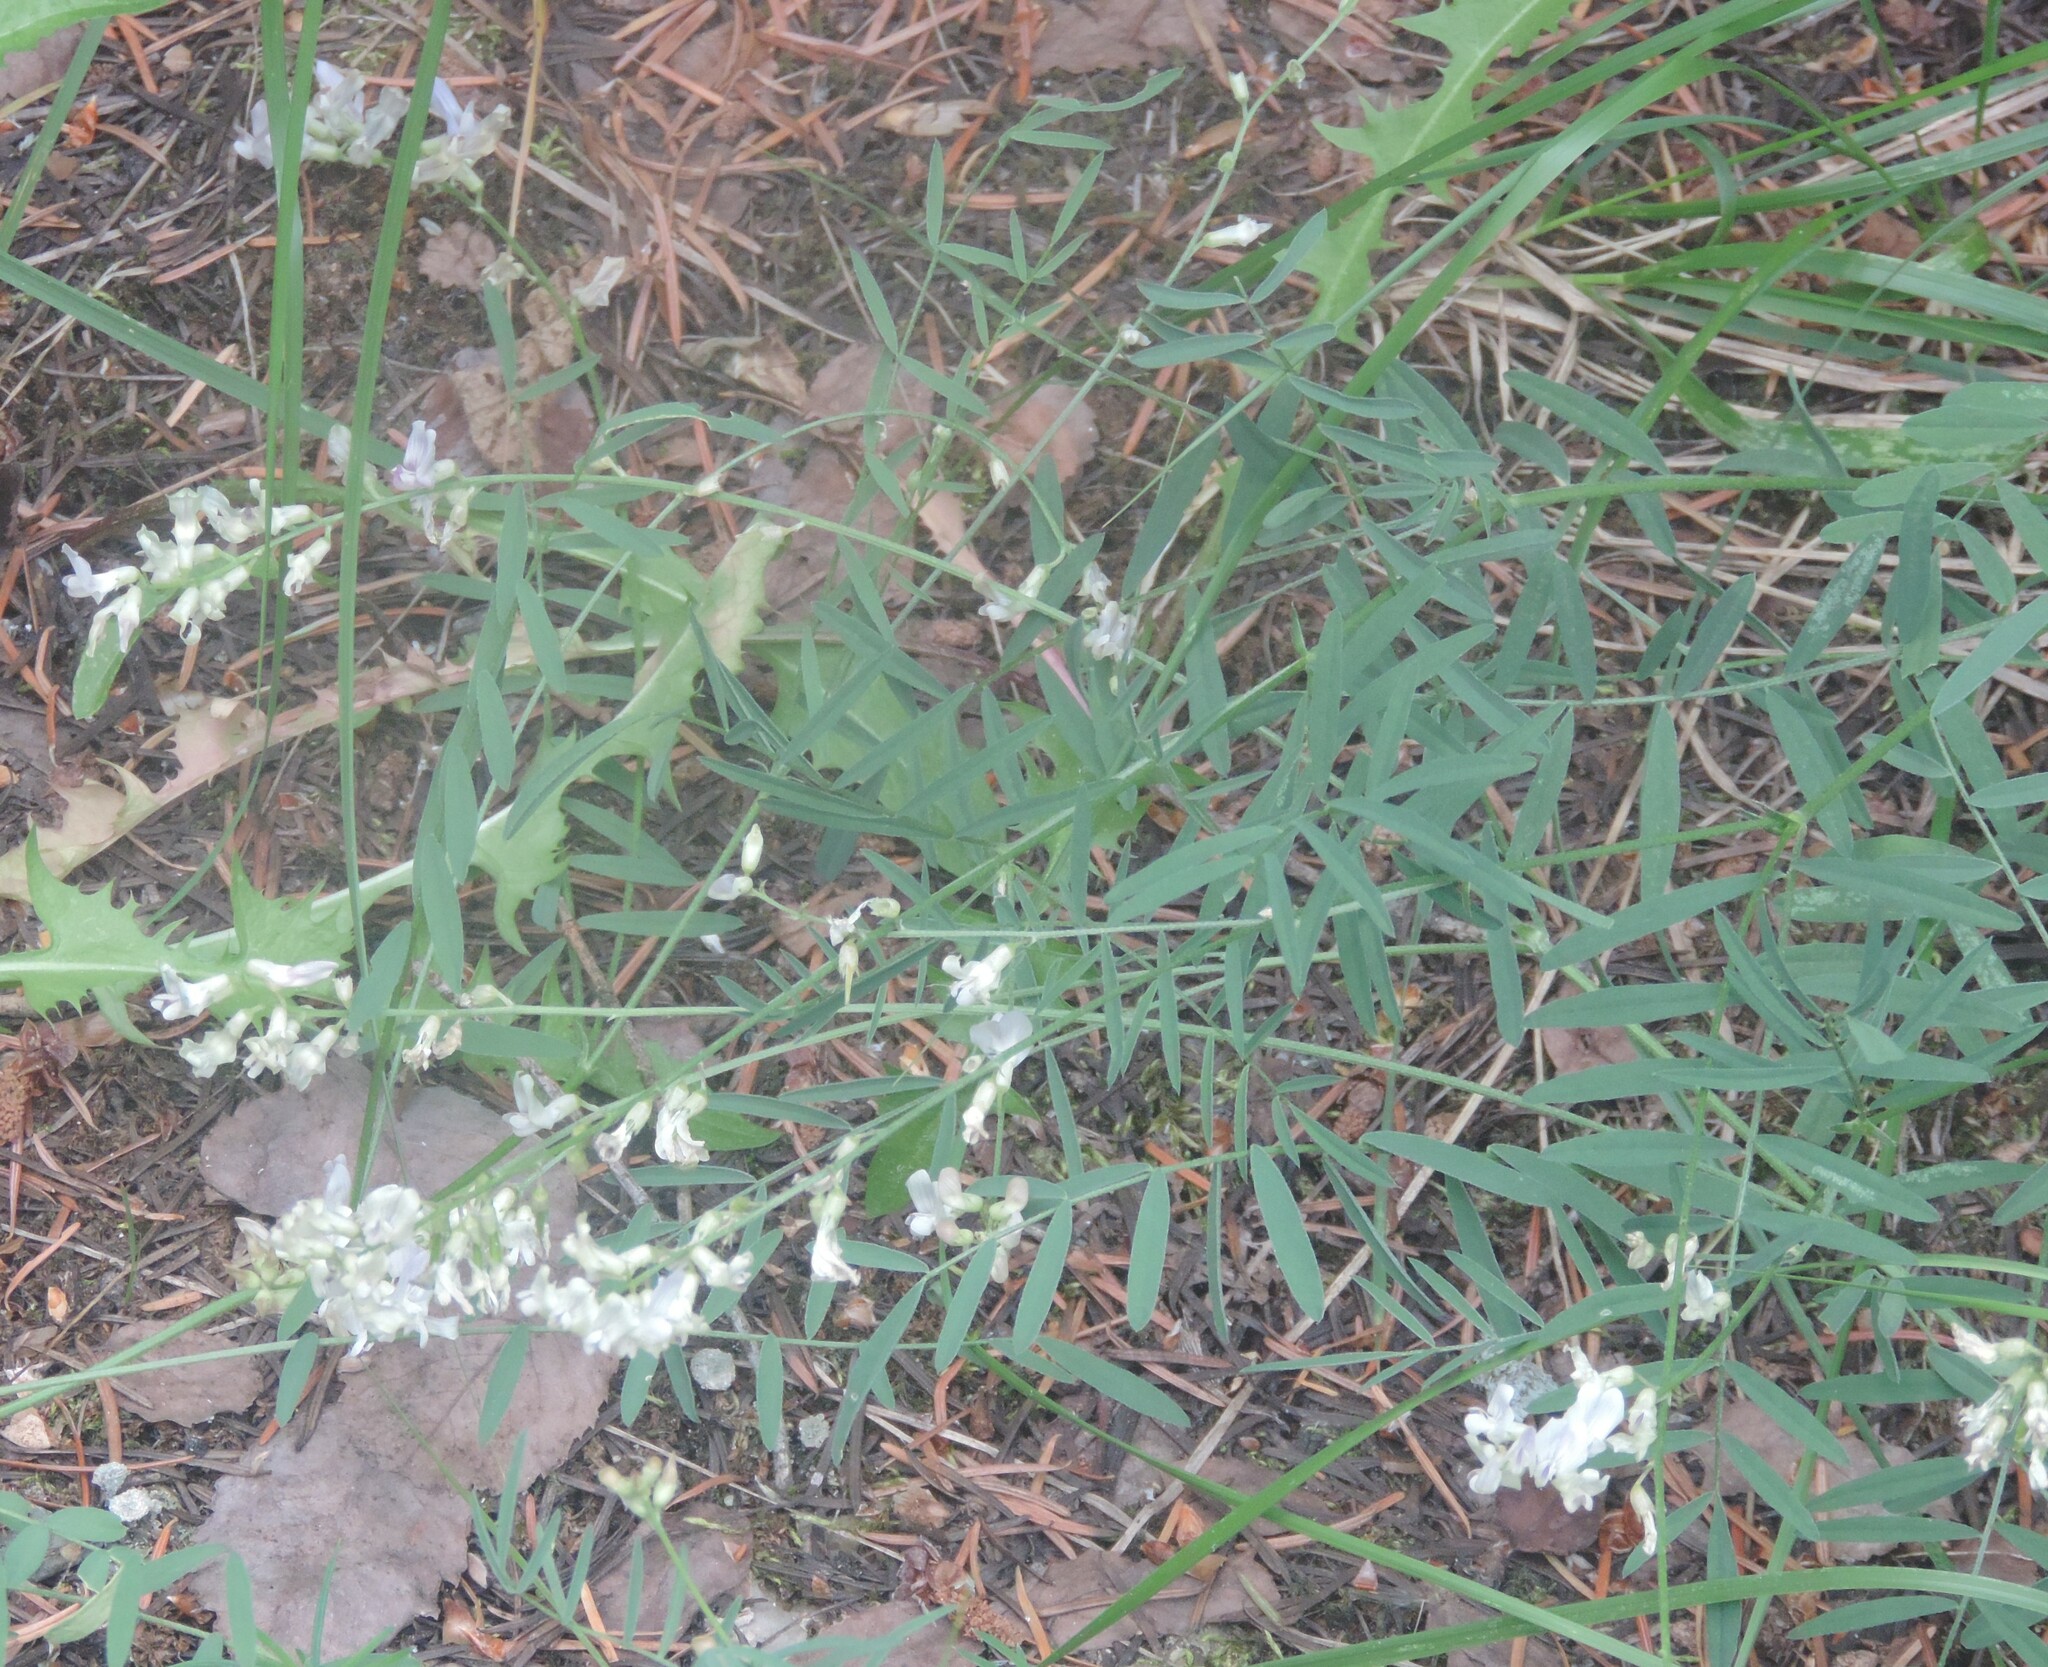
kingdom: Plantae
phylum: Tracheophyta
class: Magnoliopsida
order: Fabales
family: Fabaceae
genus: Astragalus
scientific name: Astragalus miser
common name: Timber milkvetch
